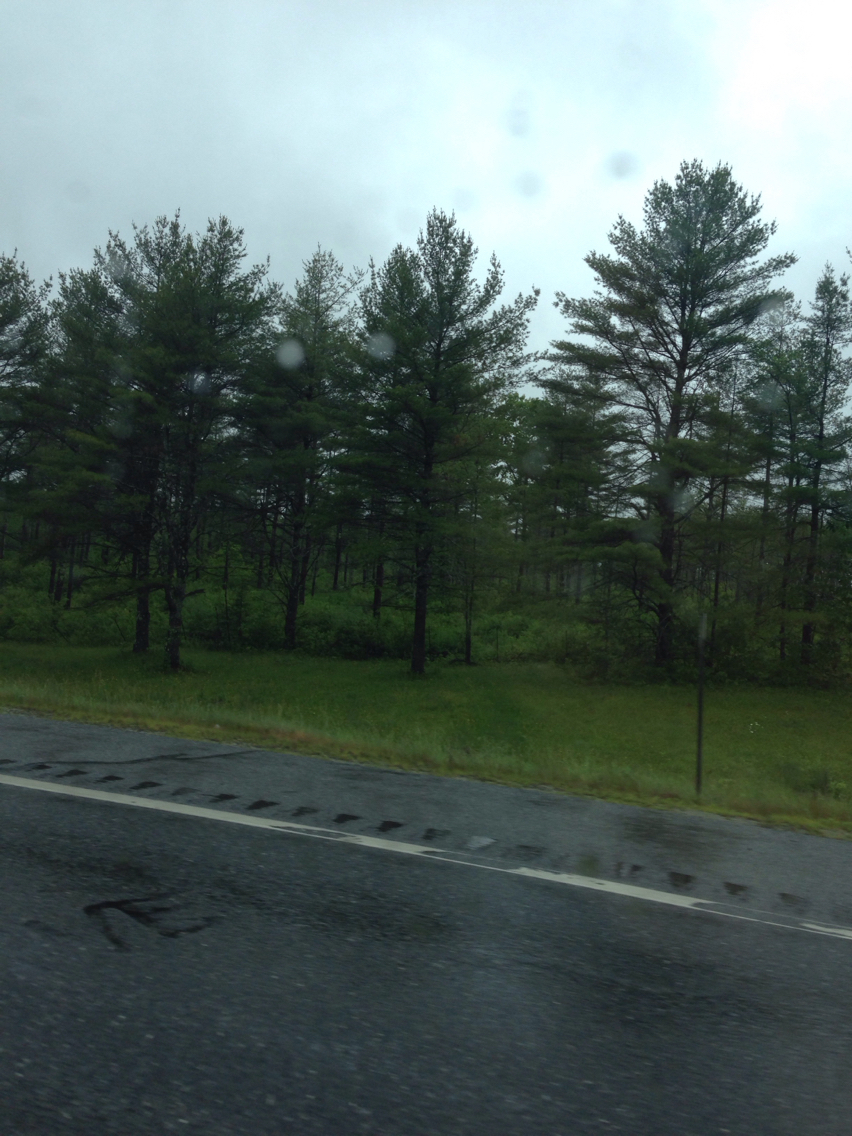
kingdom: Plantae
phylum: Tracheophyta
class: Pinopsida
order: Pinales
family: Pinaceae
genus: Pinus
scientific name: Pinus strobus
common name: Weymouth pine
